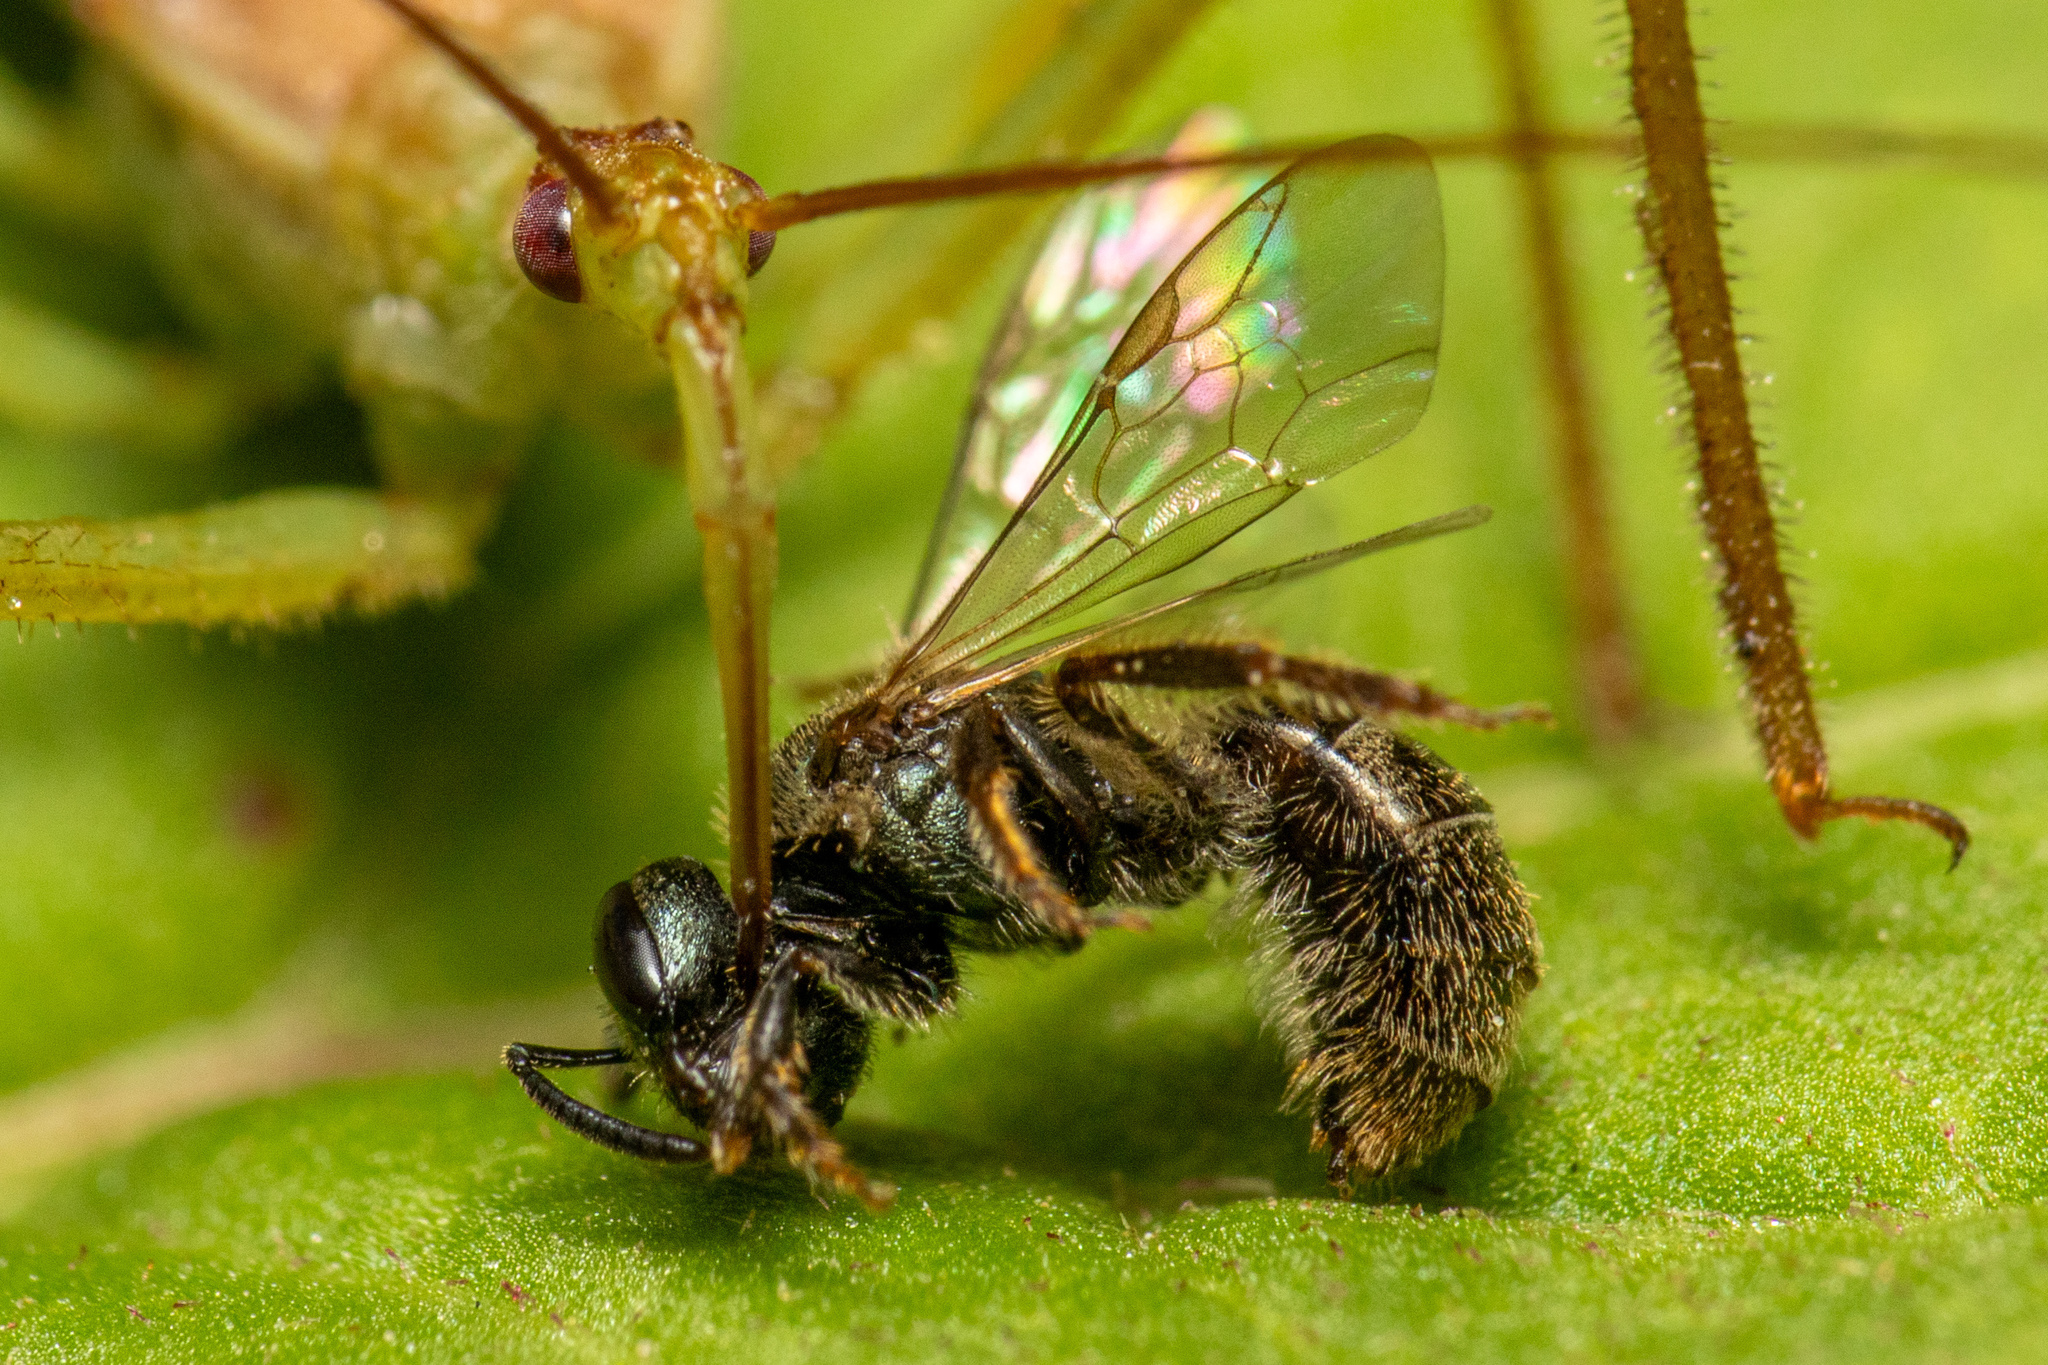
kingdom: Animalia
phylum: Arthropoda
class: Insecta
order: Hemiptera
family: Reduviidae
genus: Zelus
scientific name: Zelus renardii
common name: Assassin bug
